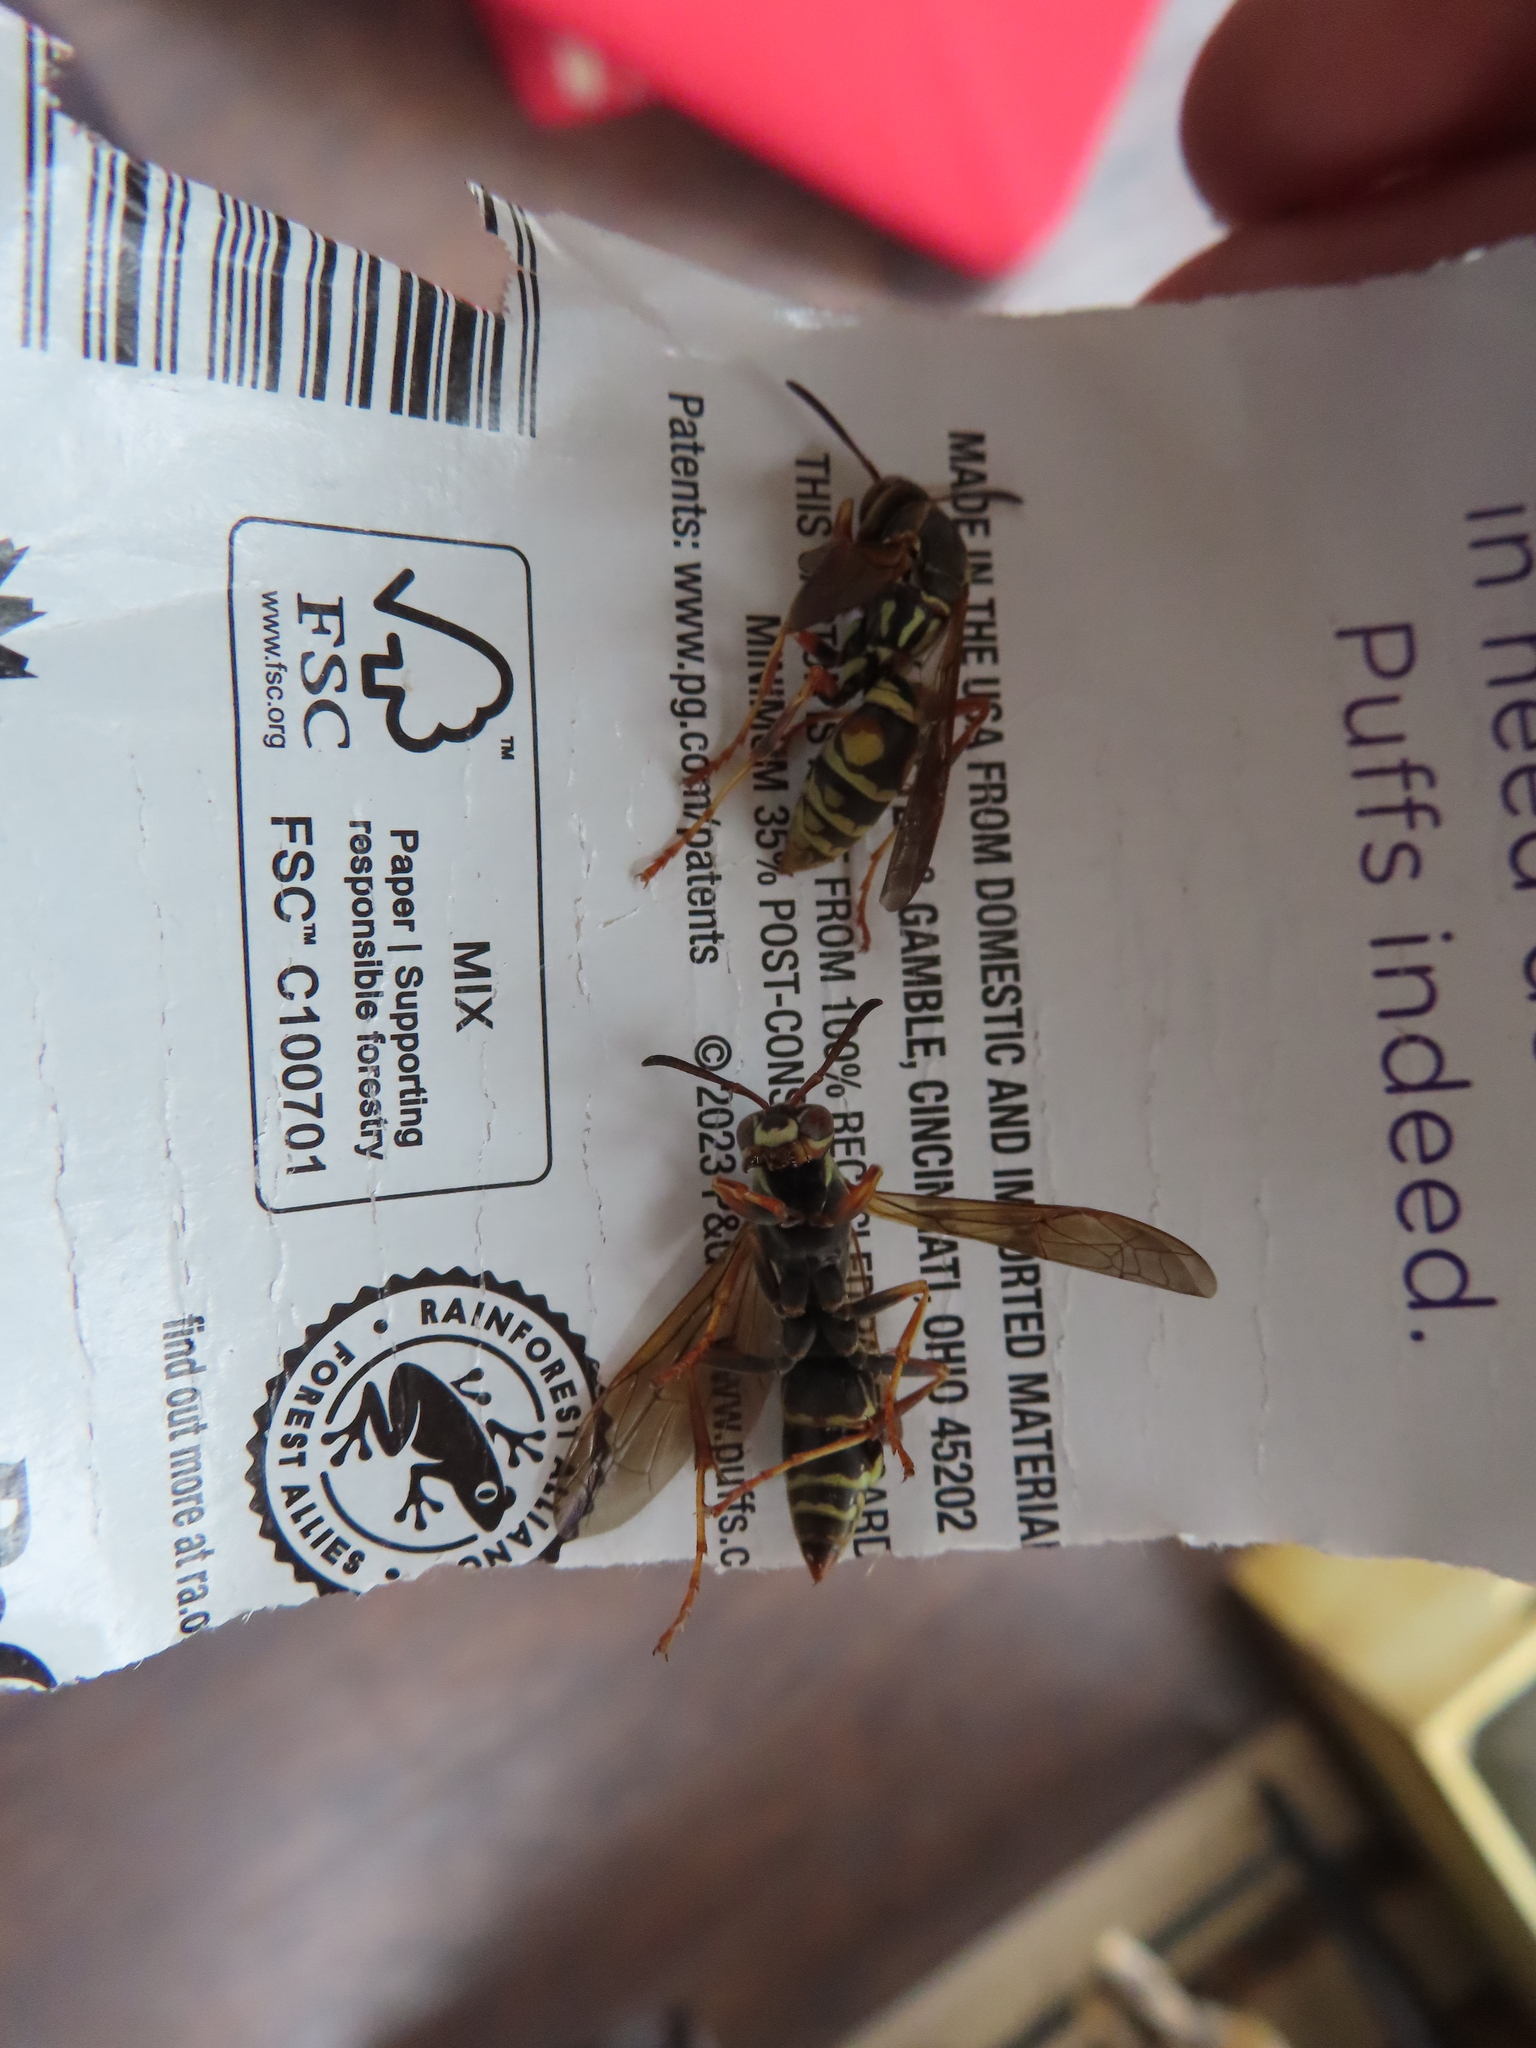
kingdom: Animalia
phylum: Arthropoda
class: Insecta
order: Hymenoptera
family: Eumenidae
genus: Polistes
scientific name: Polistes fuscatus
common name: Dark paper wasp
